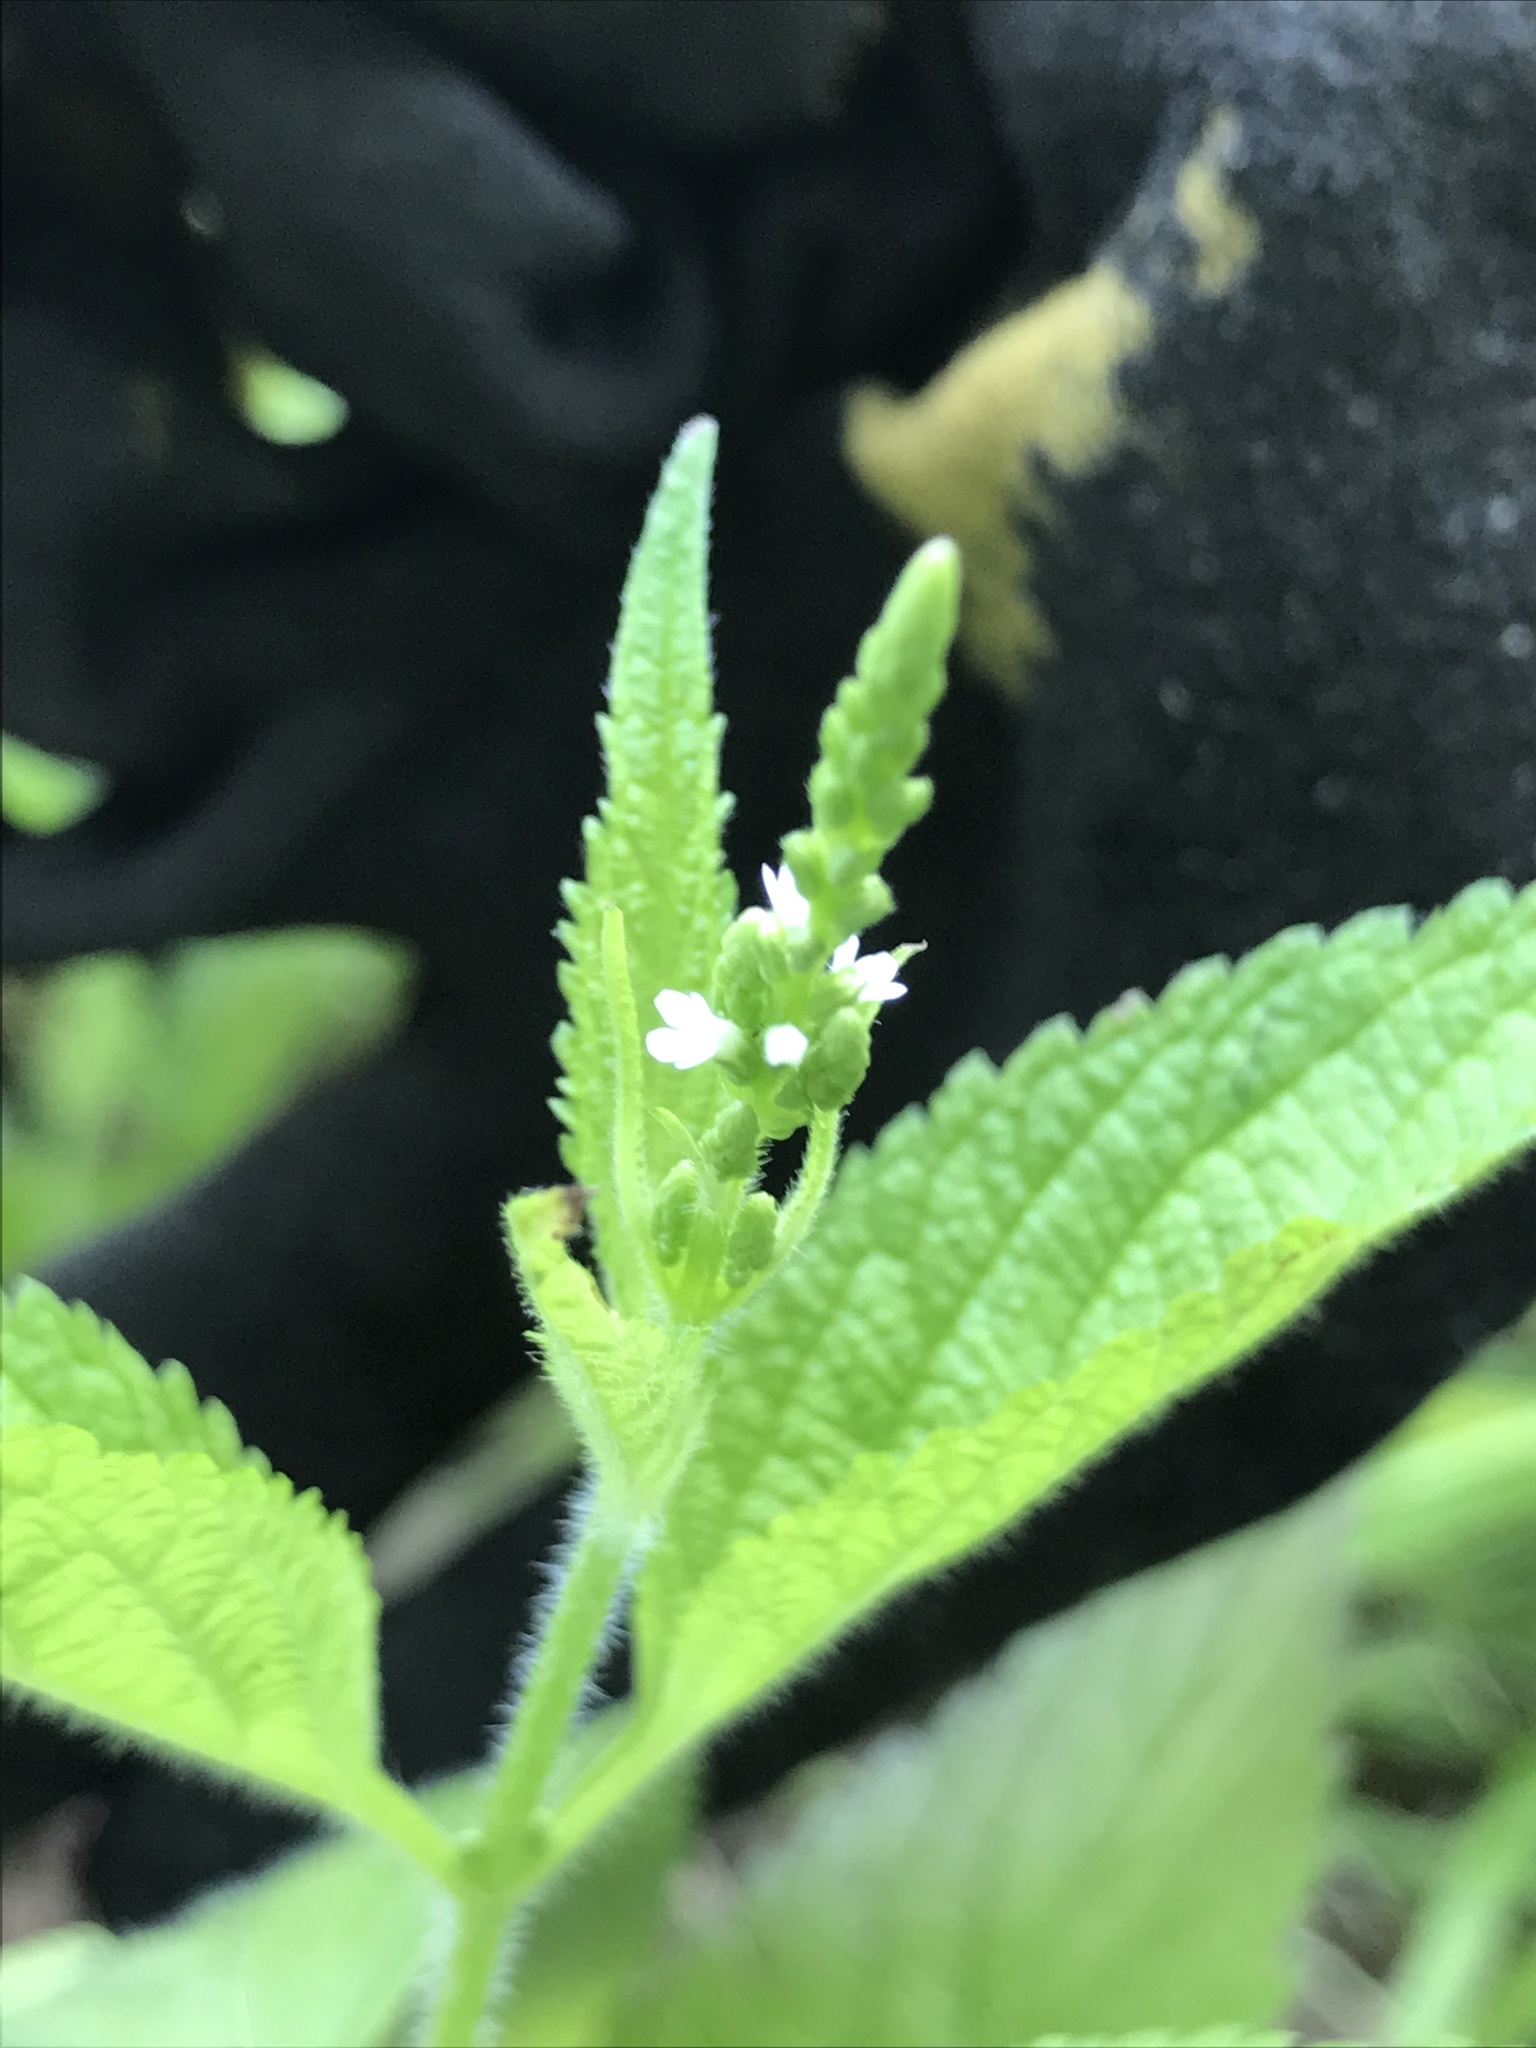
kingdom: Plantae
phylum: Tracheophyta
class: Magnoliopsida
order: Lamiales
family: Verbenaceae
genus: Verbena
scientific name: Verbena urticifolia
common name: Nettle-leaved vervain
